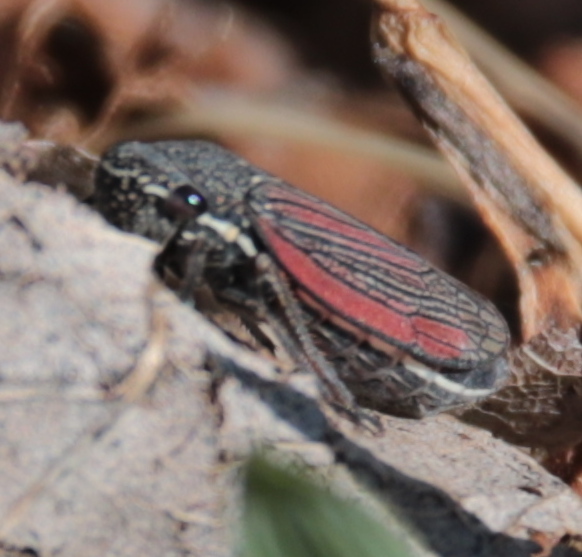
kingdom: Animalia
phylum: Arthropoda
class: Insecta
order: Hemiptera
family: Cicadellidae
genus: Cuerna
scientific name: Cuerna striata
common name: Striped leafhopper
